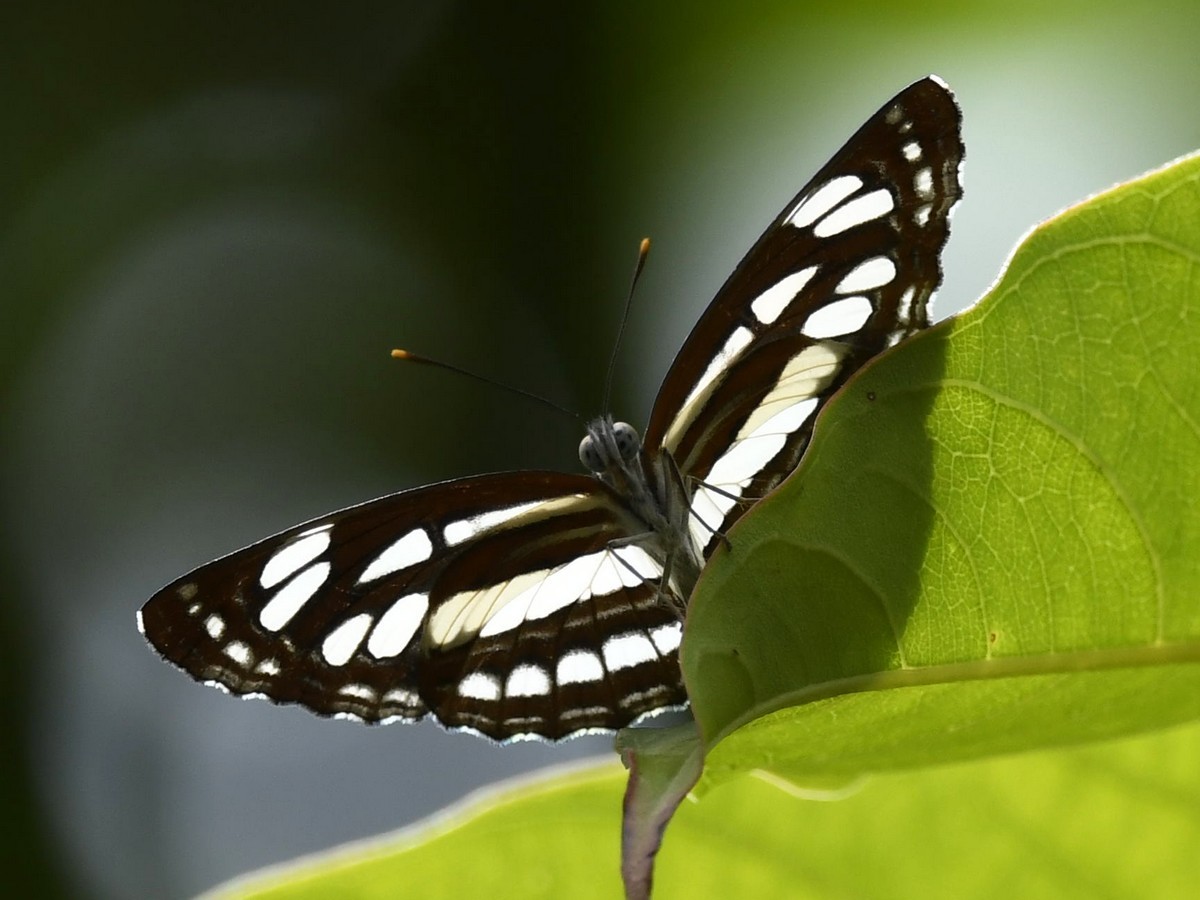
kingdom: Animalia
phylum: Arthropoda
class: Insecta
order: Lepidoptera
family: Nymphalidae
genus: Neptis
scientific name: Neptis hylas
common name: Common sailer
